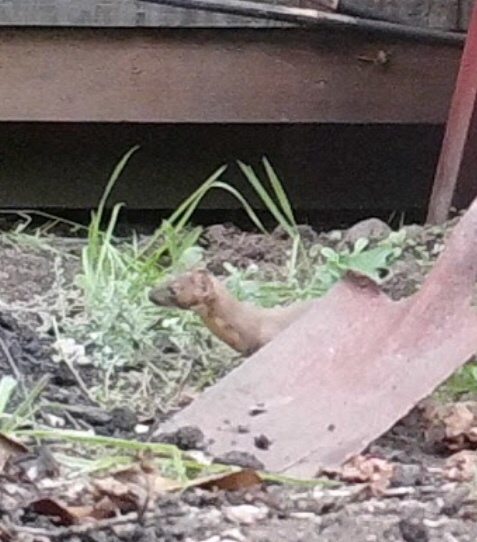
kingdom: Animalia
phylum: Chordata
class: Mammalia
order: Carnivora
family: Mustelidae
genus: Mustela
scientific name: Mustela
